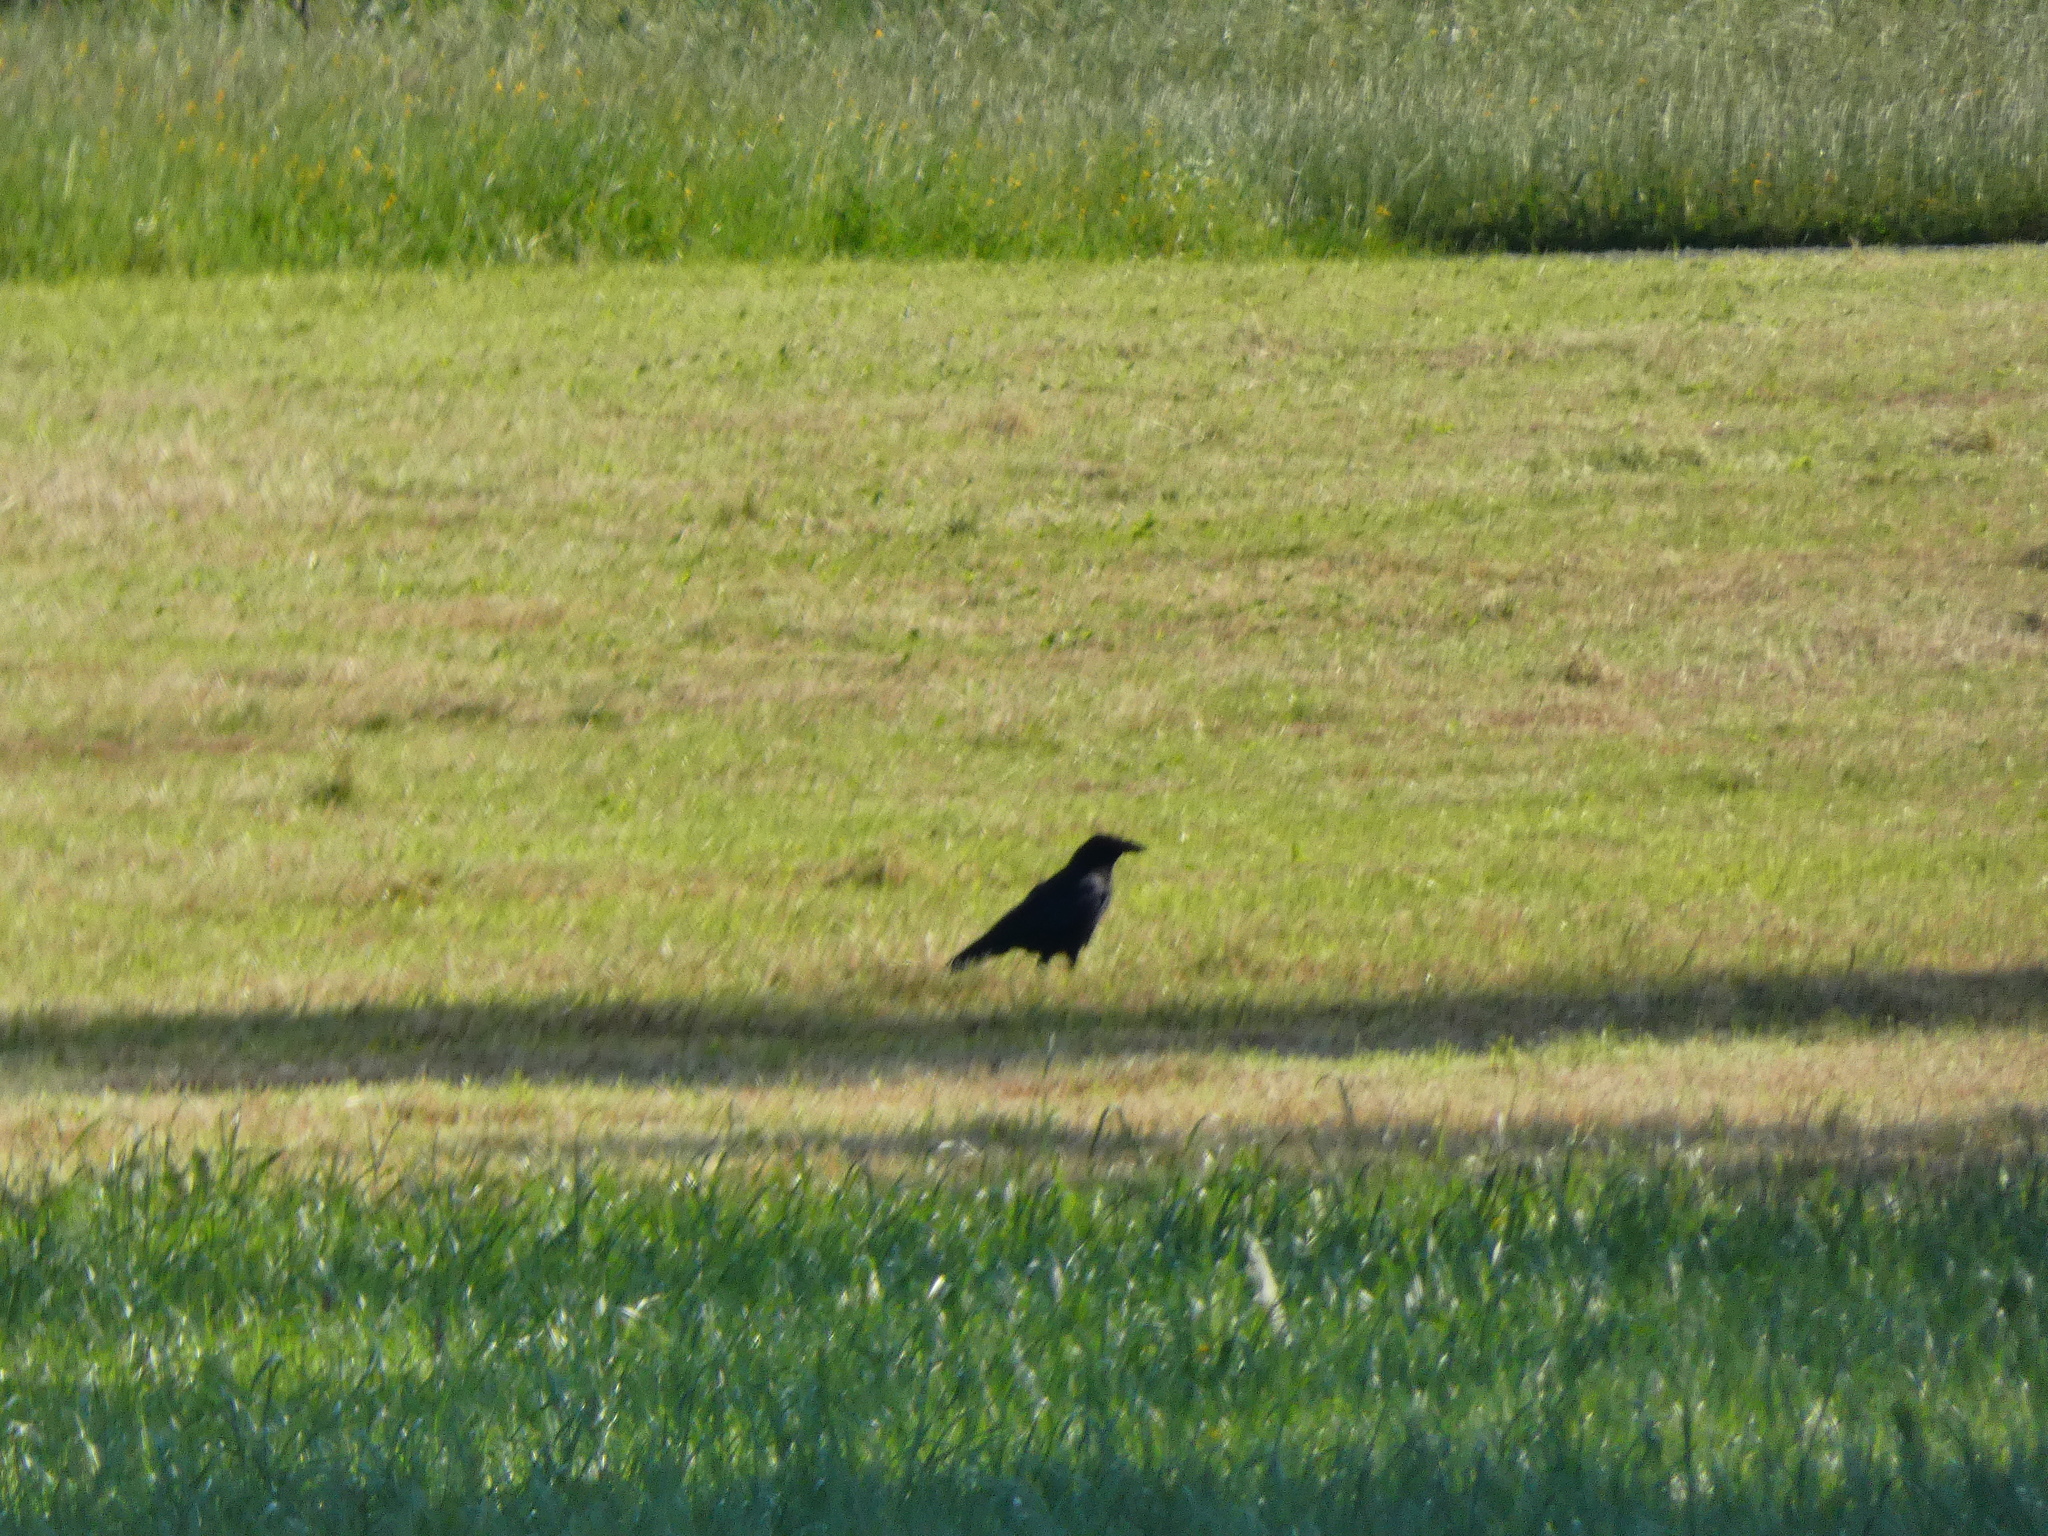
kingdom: Animalia
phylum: Chordata
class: Aves
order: Passeriformes
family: Corvidae
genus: Corvus
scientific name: Corvus corone
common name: Carrion crow
